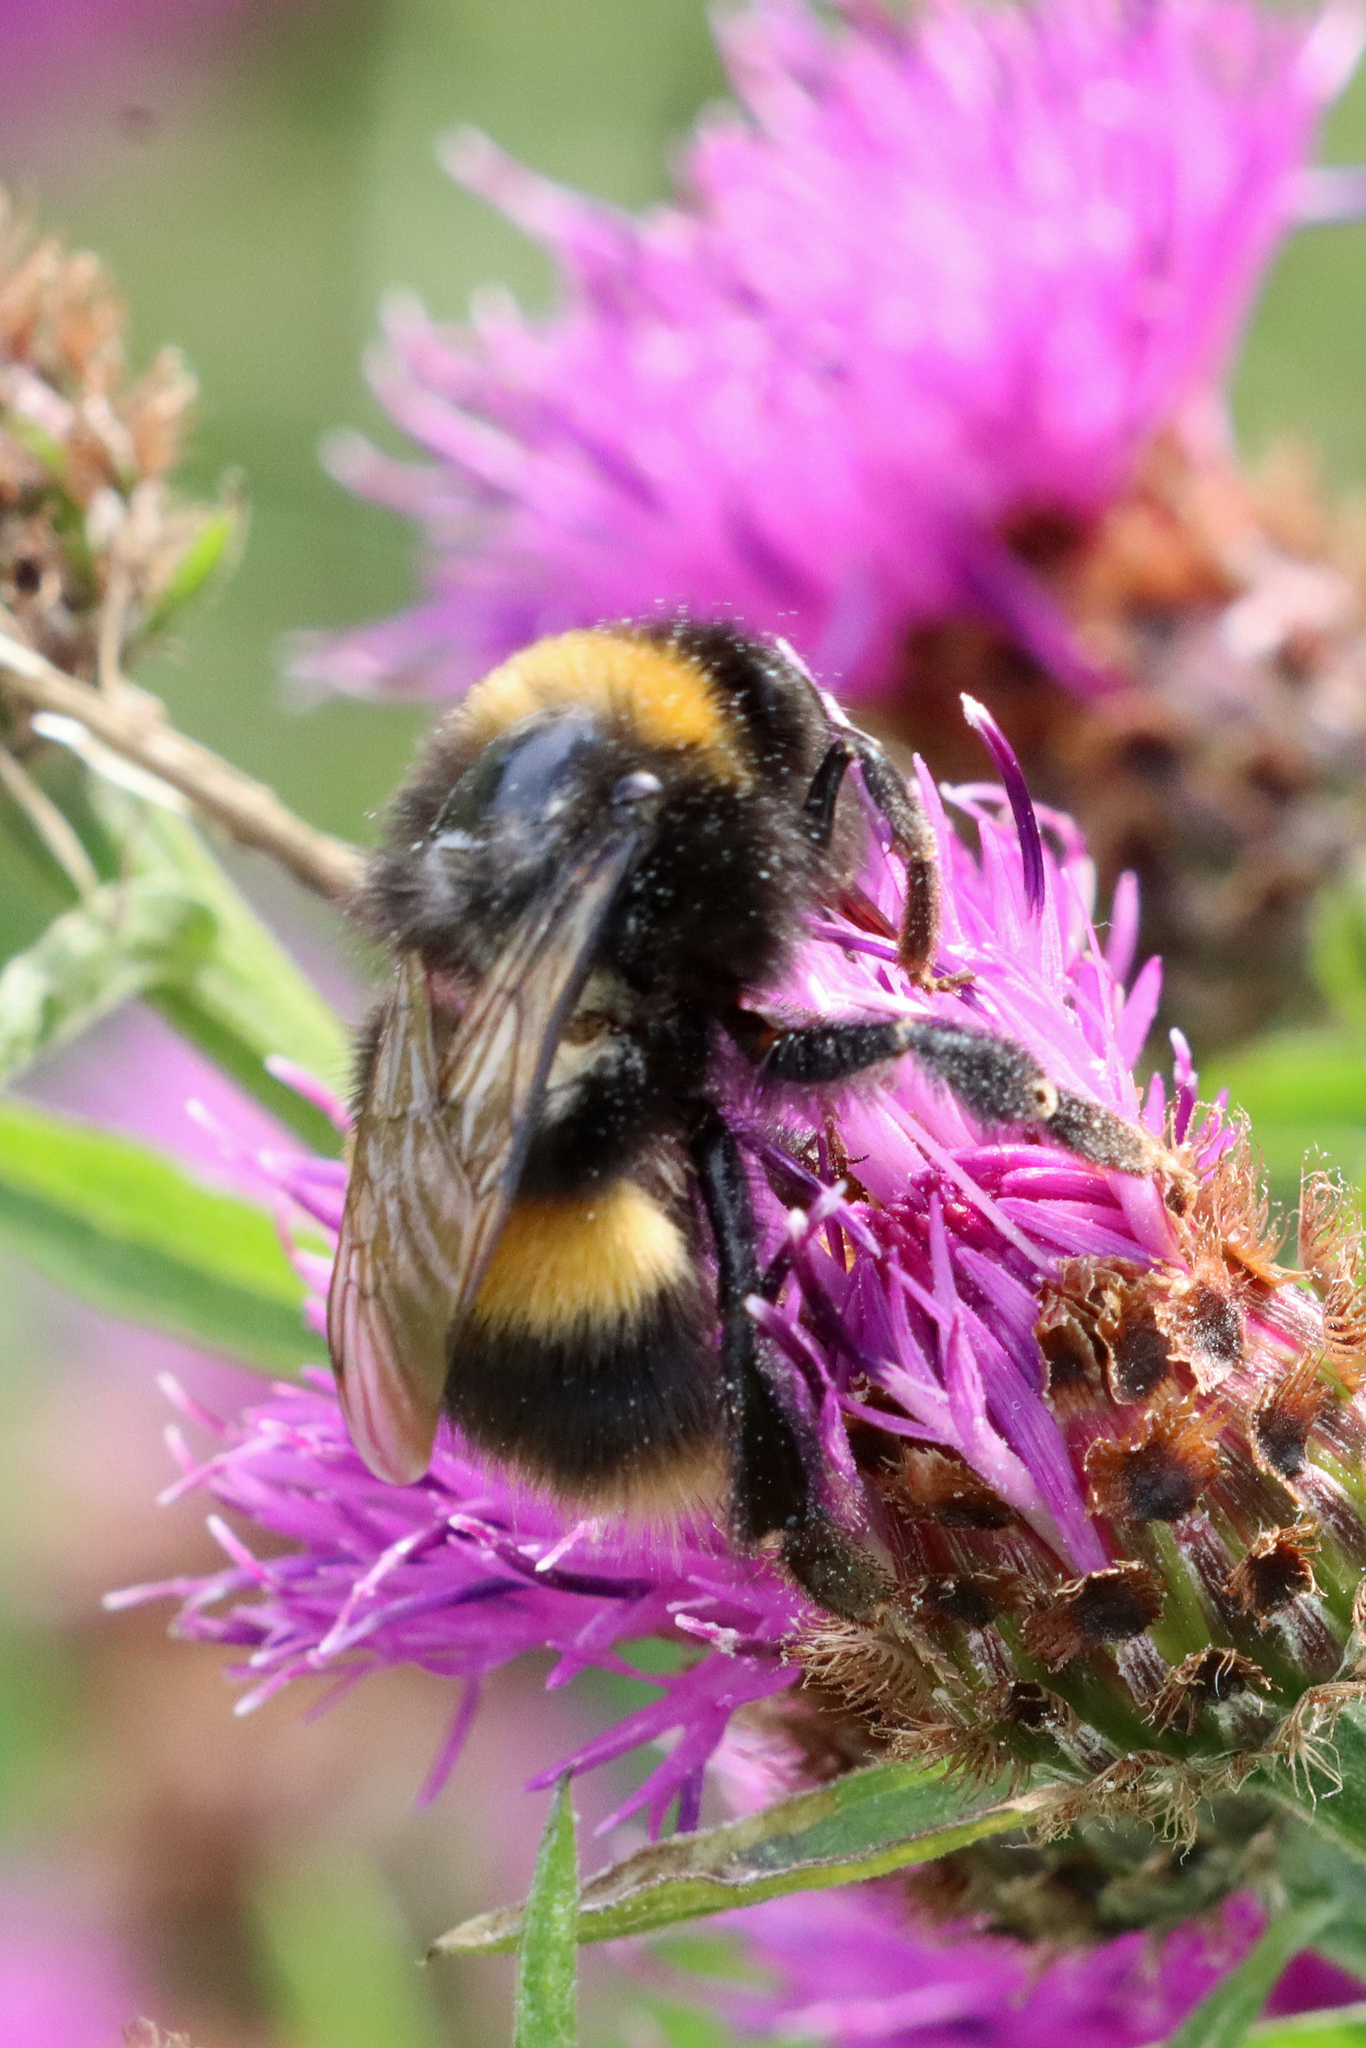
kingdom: Animalia
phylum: Arthropoda
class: Insecta
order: Hymenoptera
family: Apidae
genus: Bombus
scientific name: Bombus terrestris
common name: Buff-tailed bumblebee
